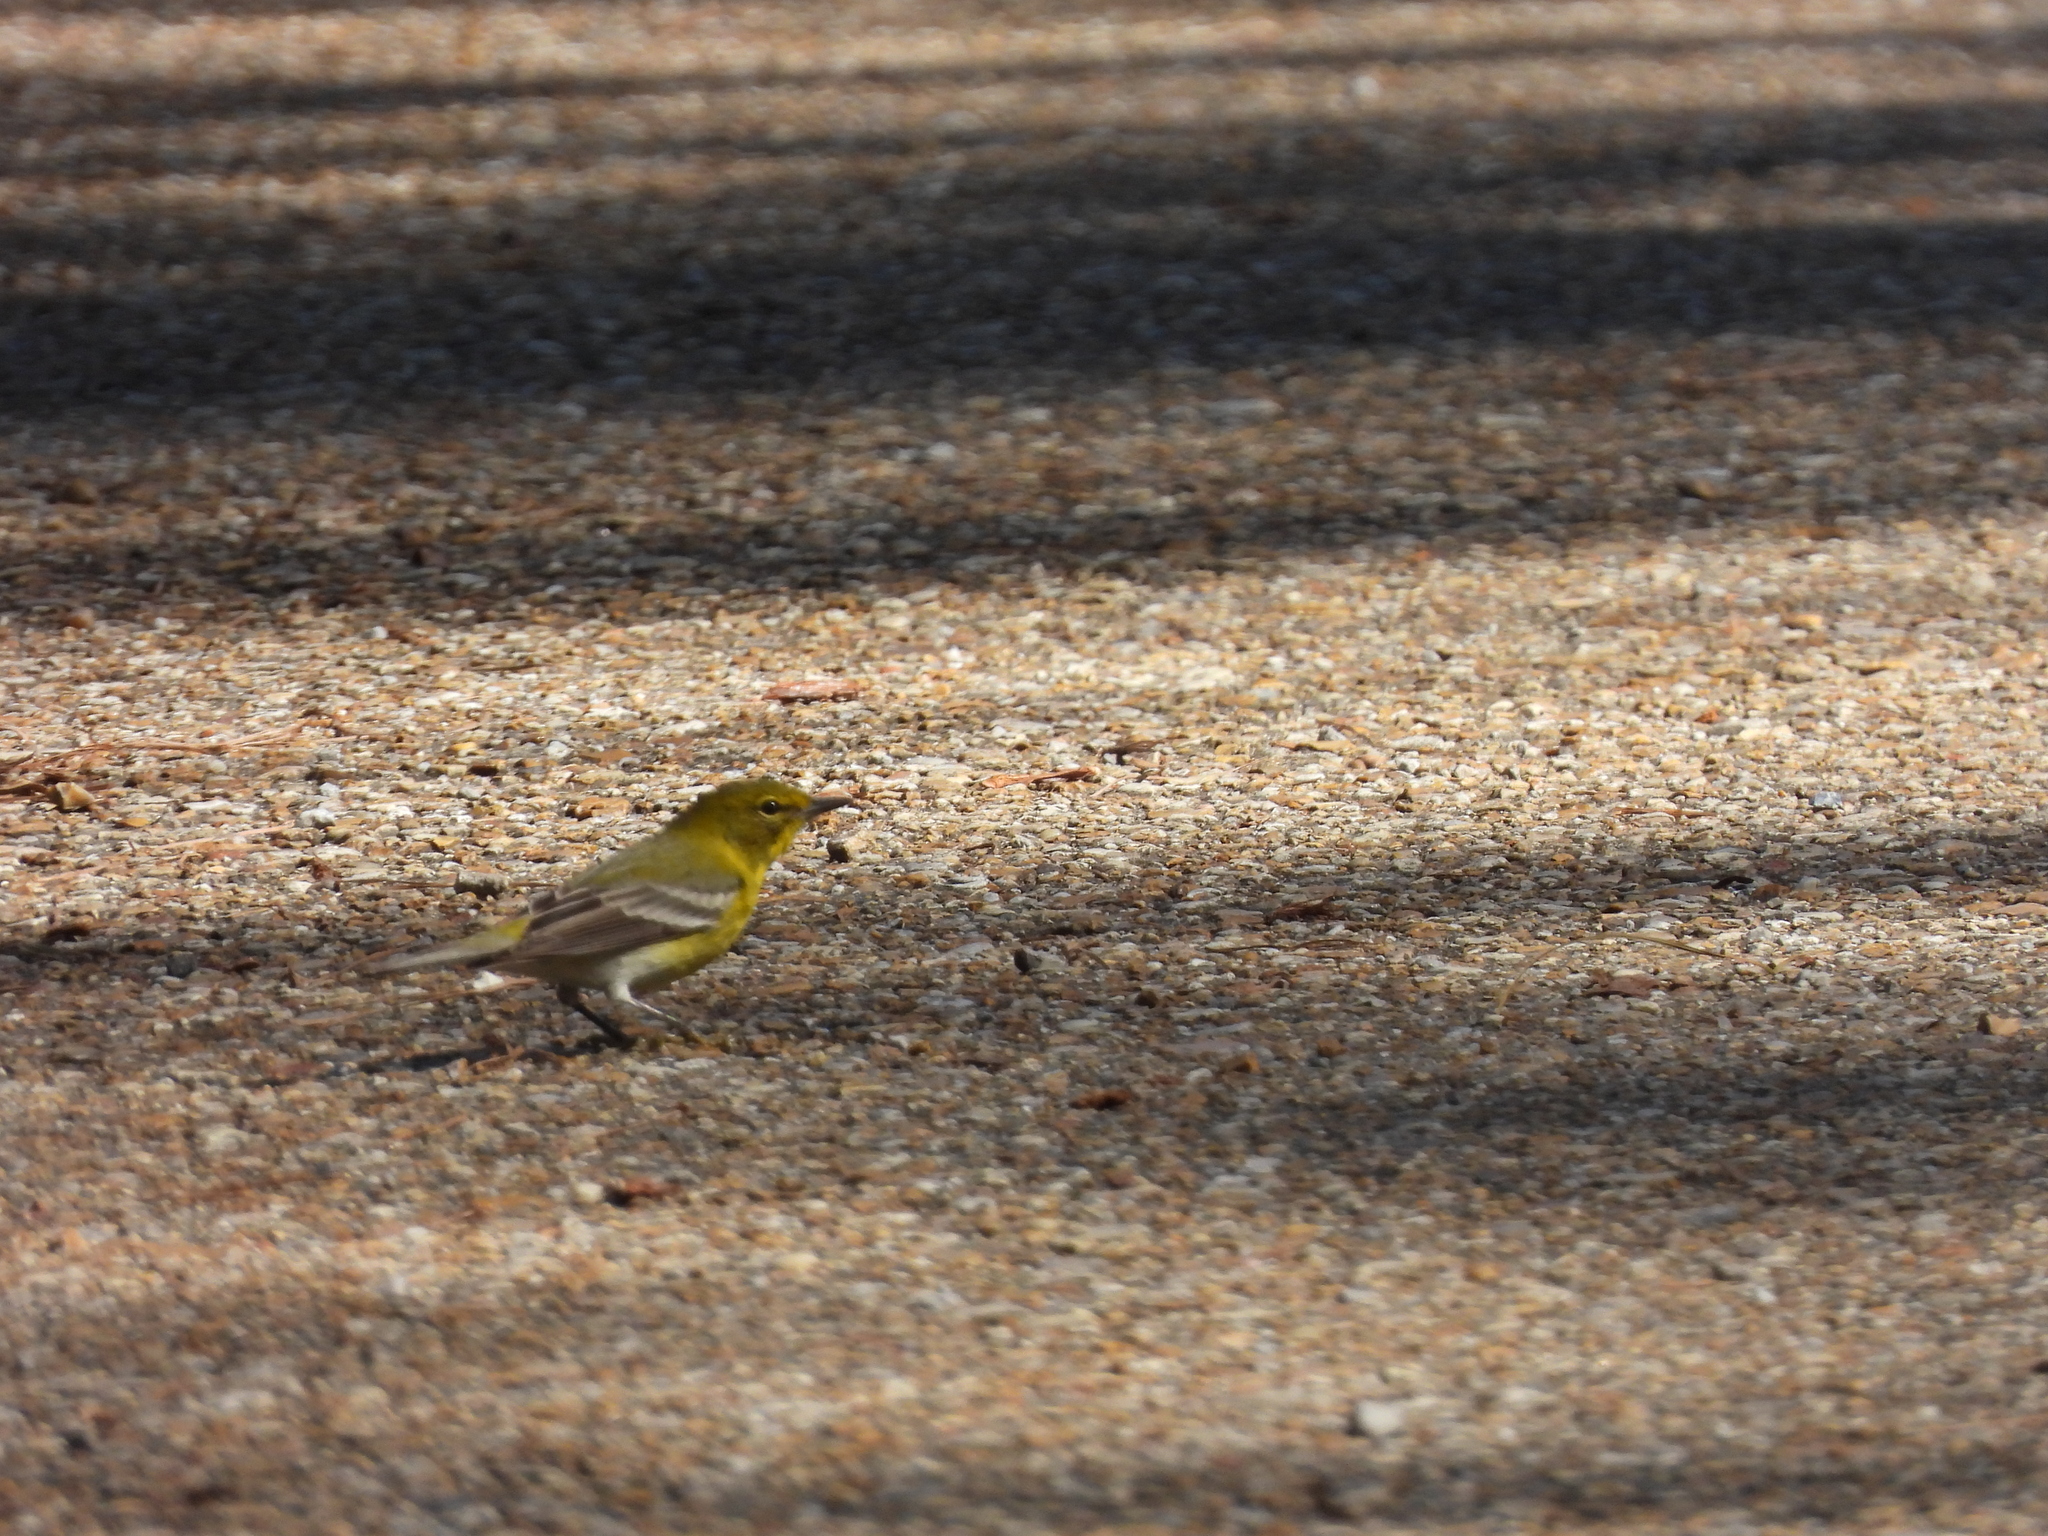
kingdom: Animalia
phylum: Chordata
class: Aves
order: Passeriformes
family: Parulidae
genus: Setophaga
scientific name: Setophaga pinus
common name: Pine warbler
